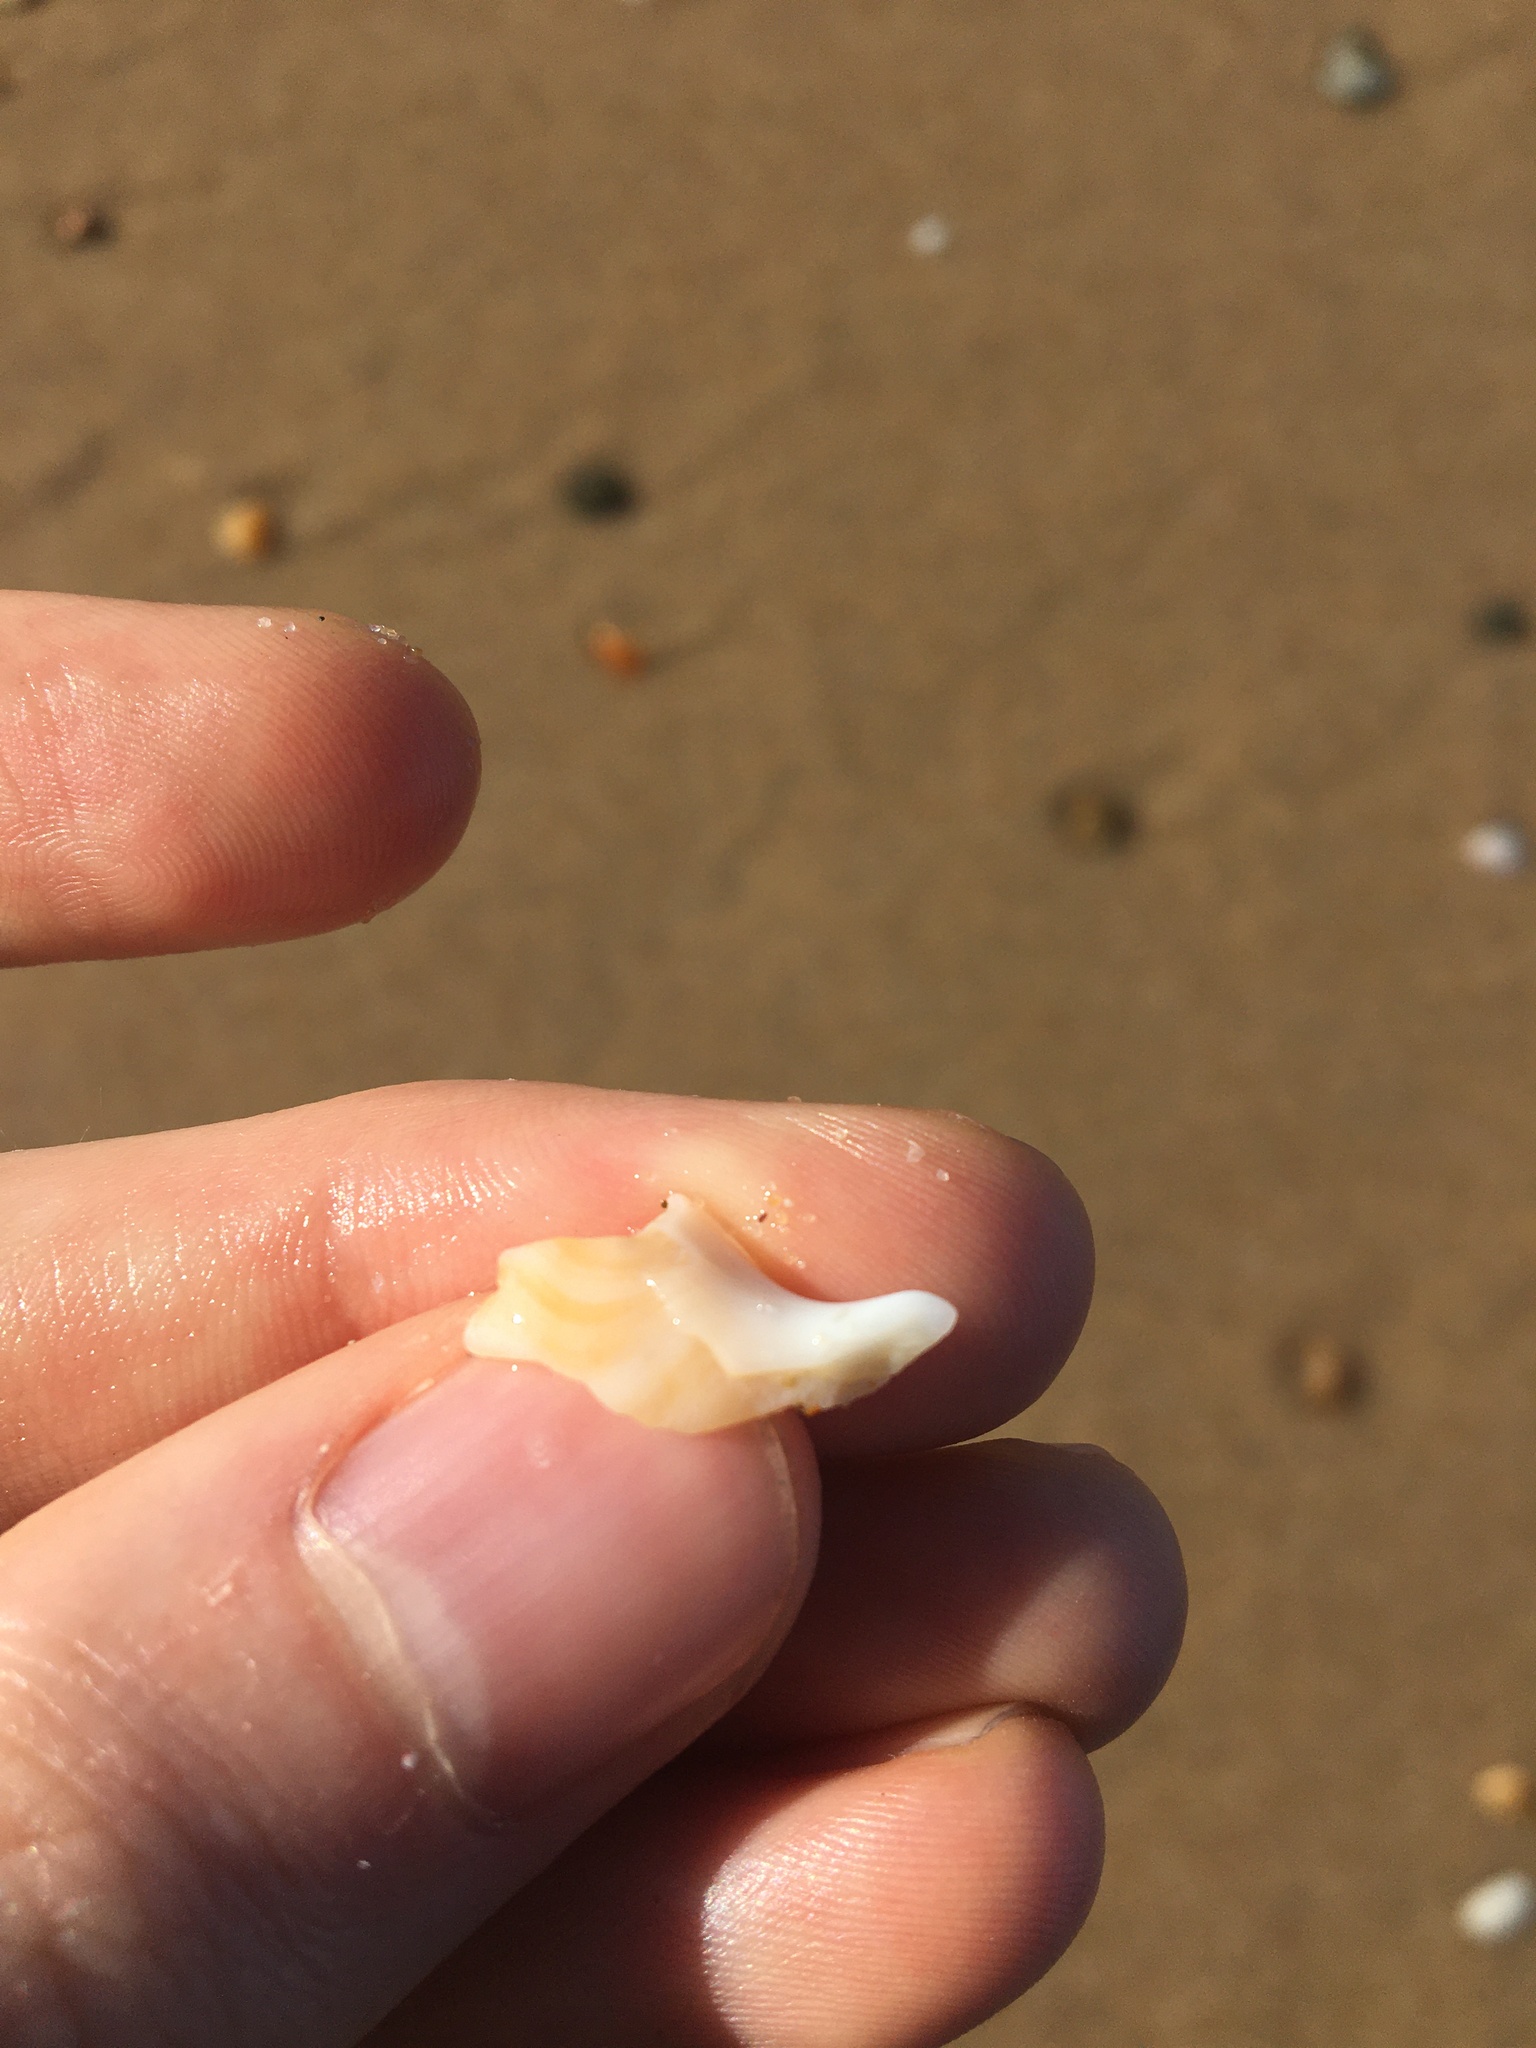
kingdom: Animalia
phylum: Mollusca
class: Gastropoda
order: Littorinimorpha
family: Struthiolariidae
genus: Tylospira
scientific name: Tylospira scutulata
